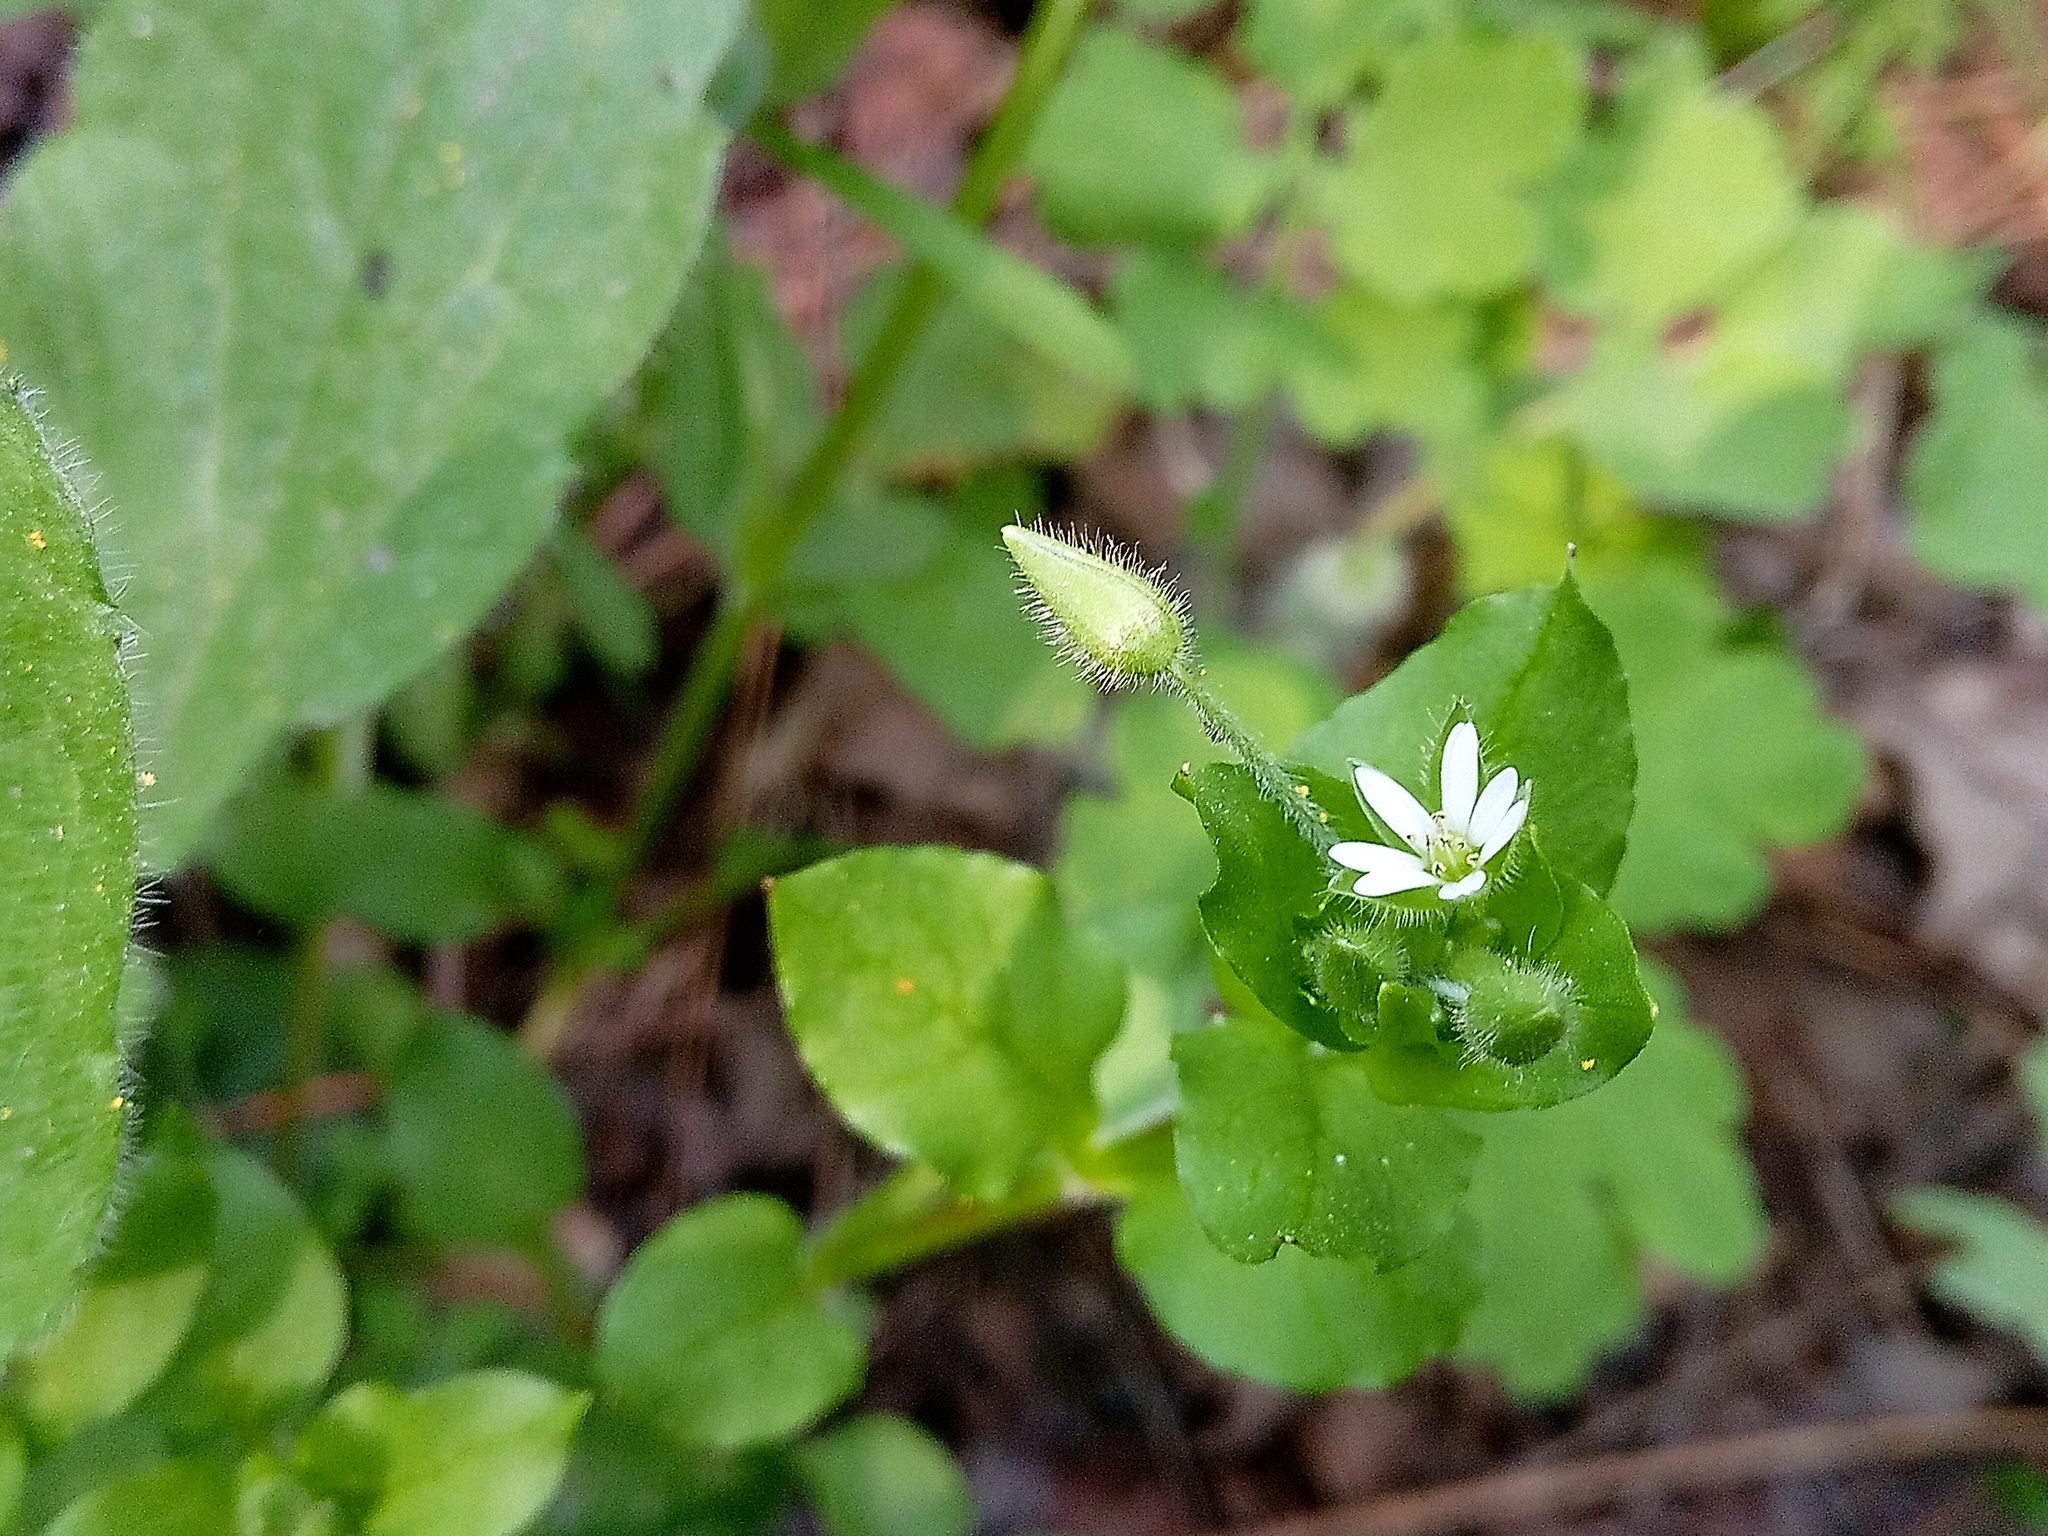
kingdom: Plantae
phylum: Tracheophyta
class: Magnoliopsida
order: Caryophyllales
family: Caryophyllaceae
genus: Stellaria
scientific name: Stellaria media
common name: Common chickweed
